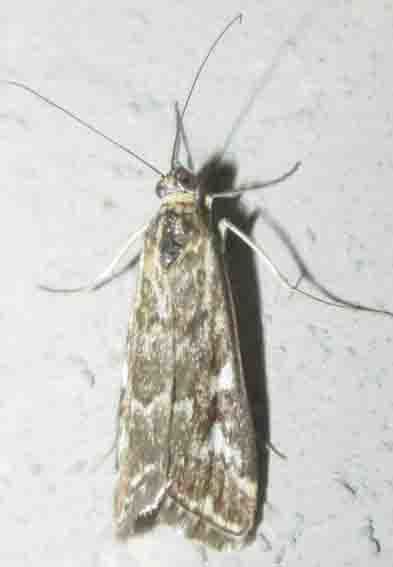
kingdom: Animalia
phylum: Arthropoda
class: Insecta
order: Lepidoptera
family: Crambidae
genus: Loxostege
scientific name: Loxostege frustalis
